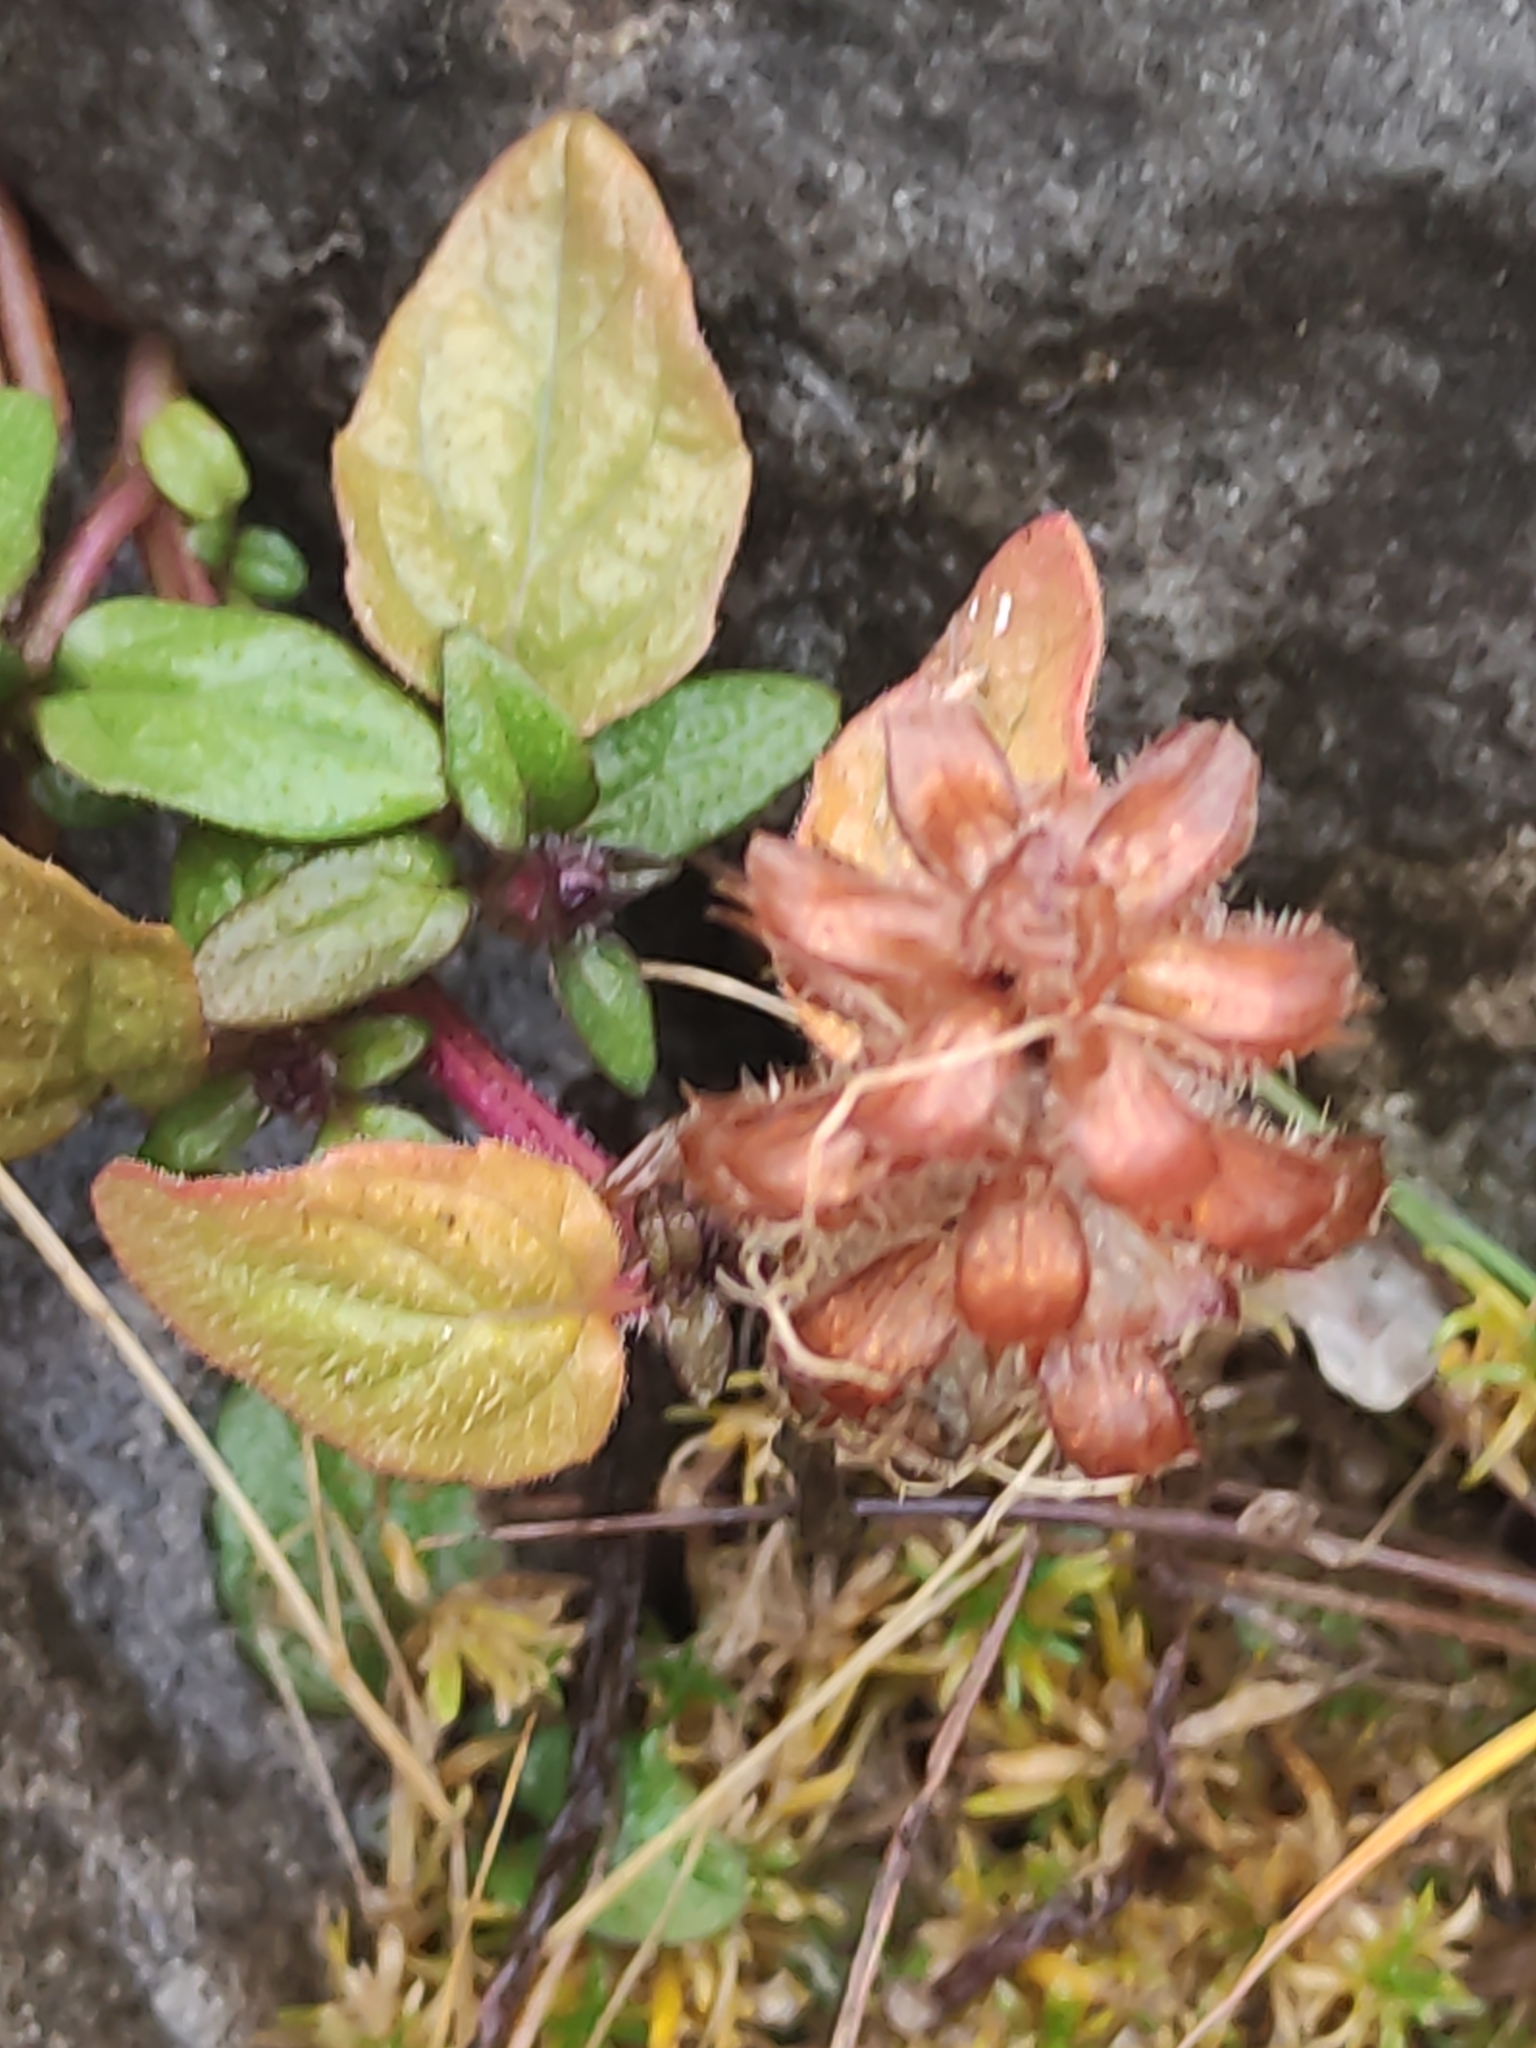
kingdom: Plantae
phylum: Tracheophyta
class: Magnoliopsida
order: Lamiales
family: Lamiaceae
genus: Prunella
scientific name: Prunella vulgaris
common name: Heal-all
